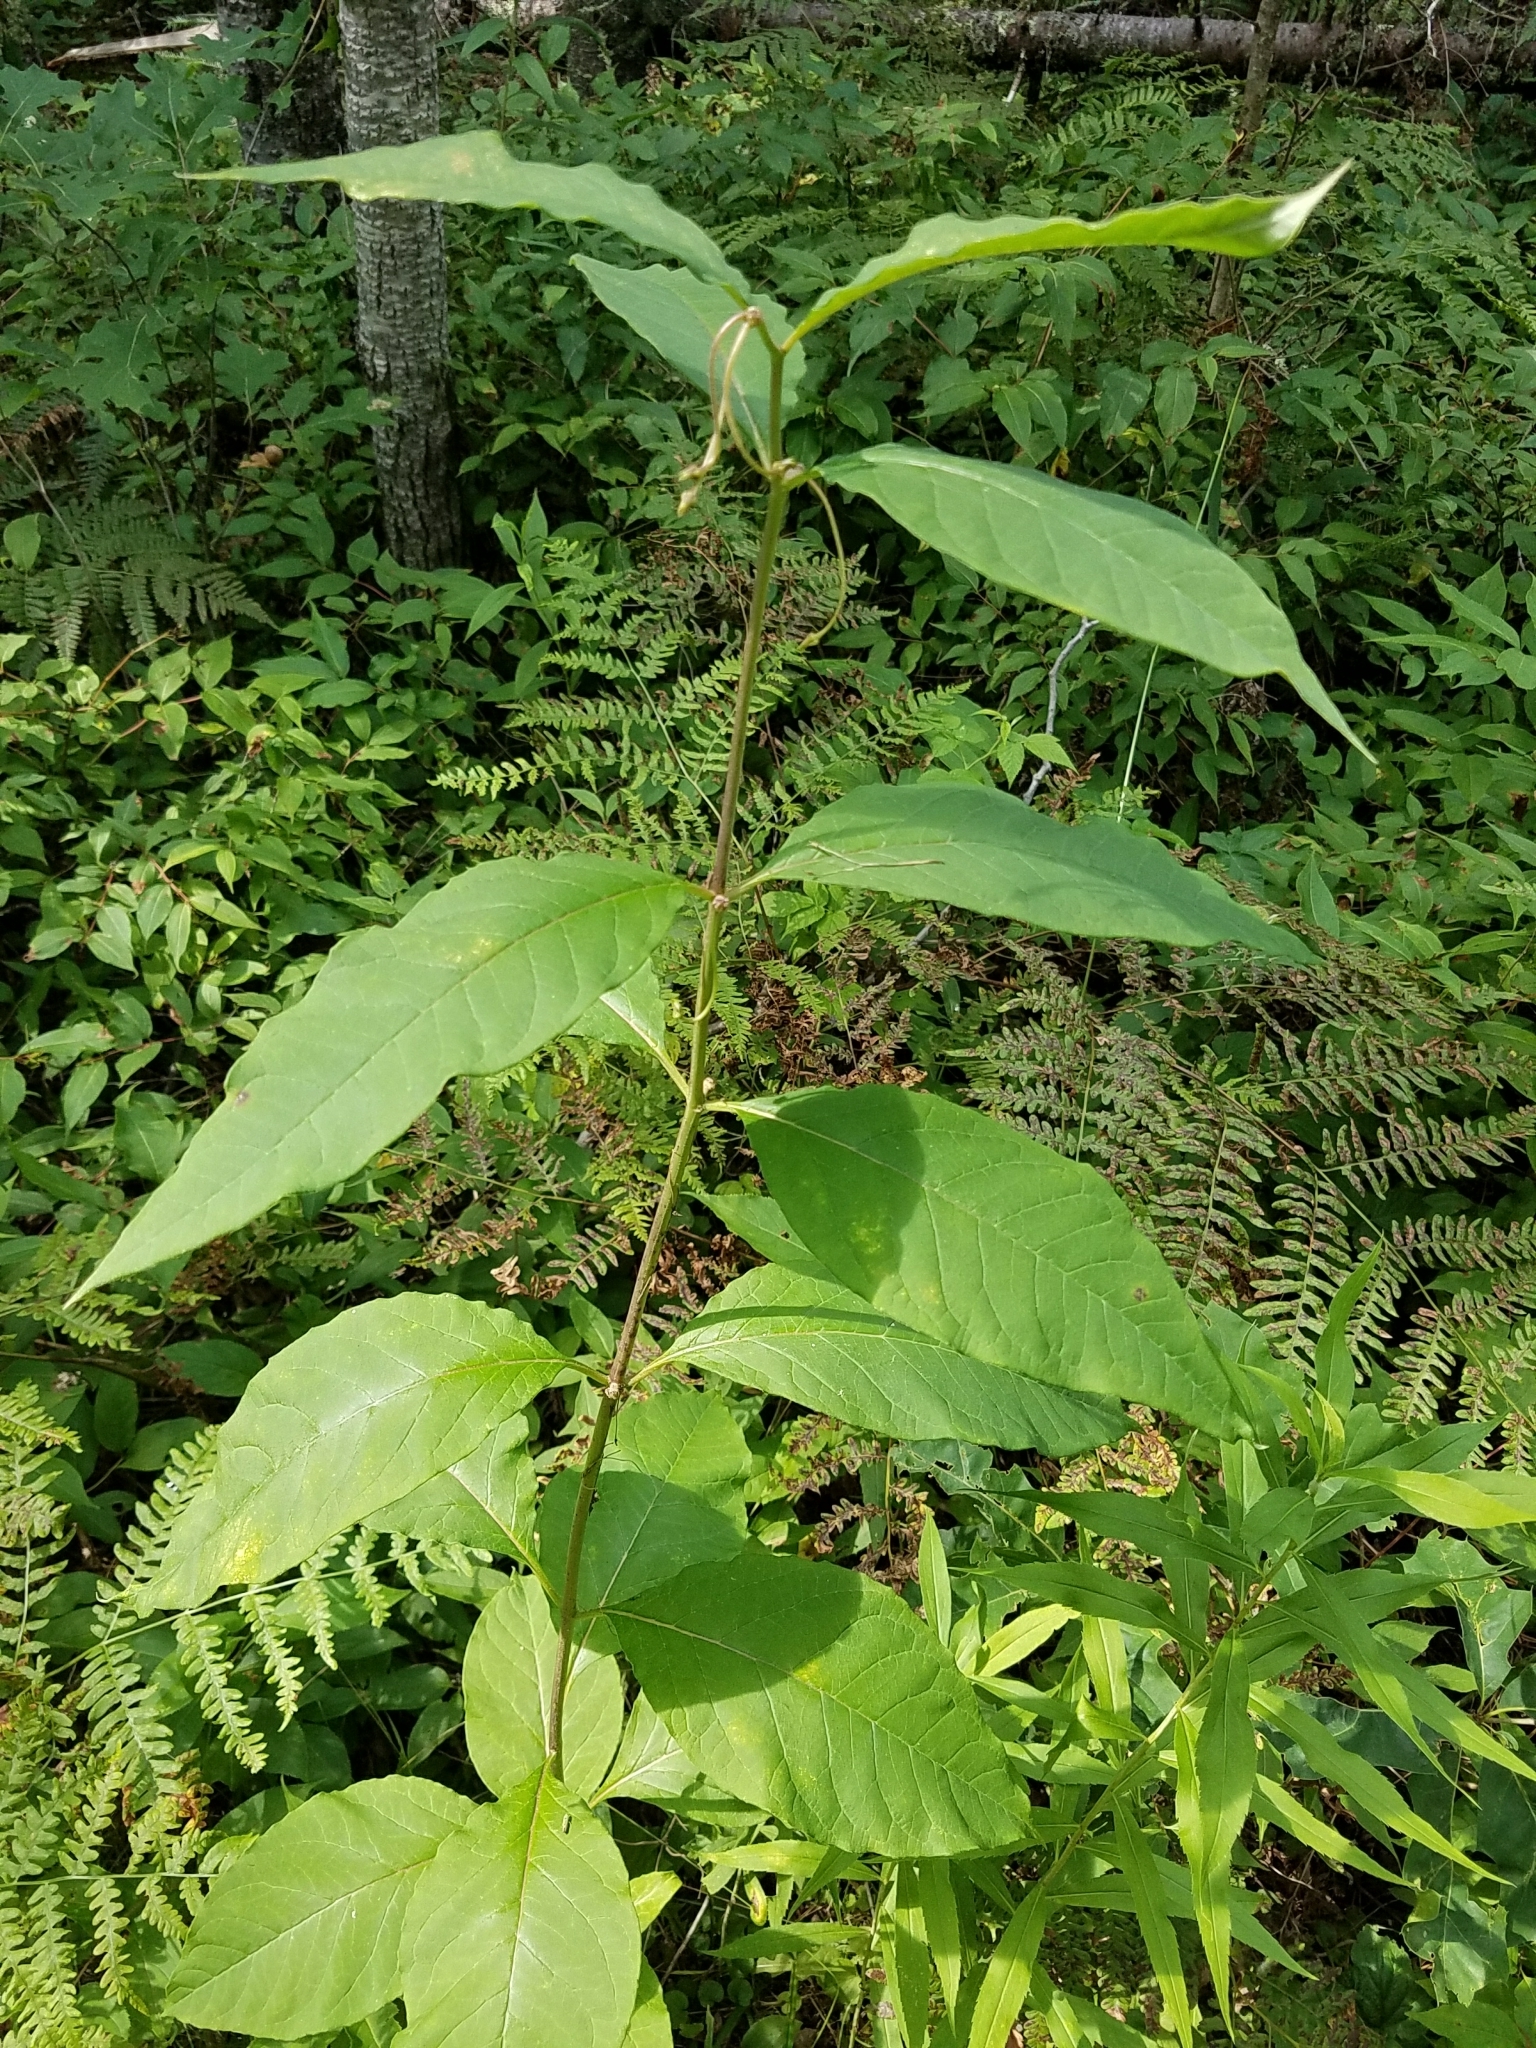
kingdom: Plantae
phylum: Tracheophyta
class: Magnoliopsida
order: Gentianales
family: Apocynaceae
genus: Asclepias
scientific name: Asclepias exaltata
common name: Poke milkweed
